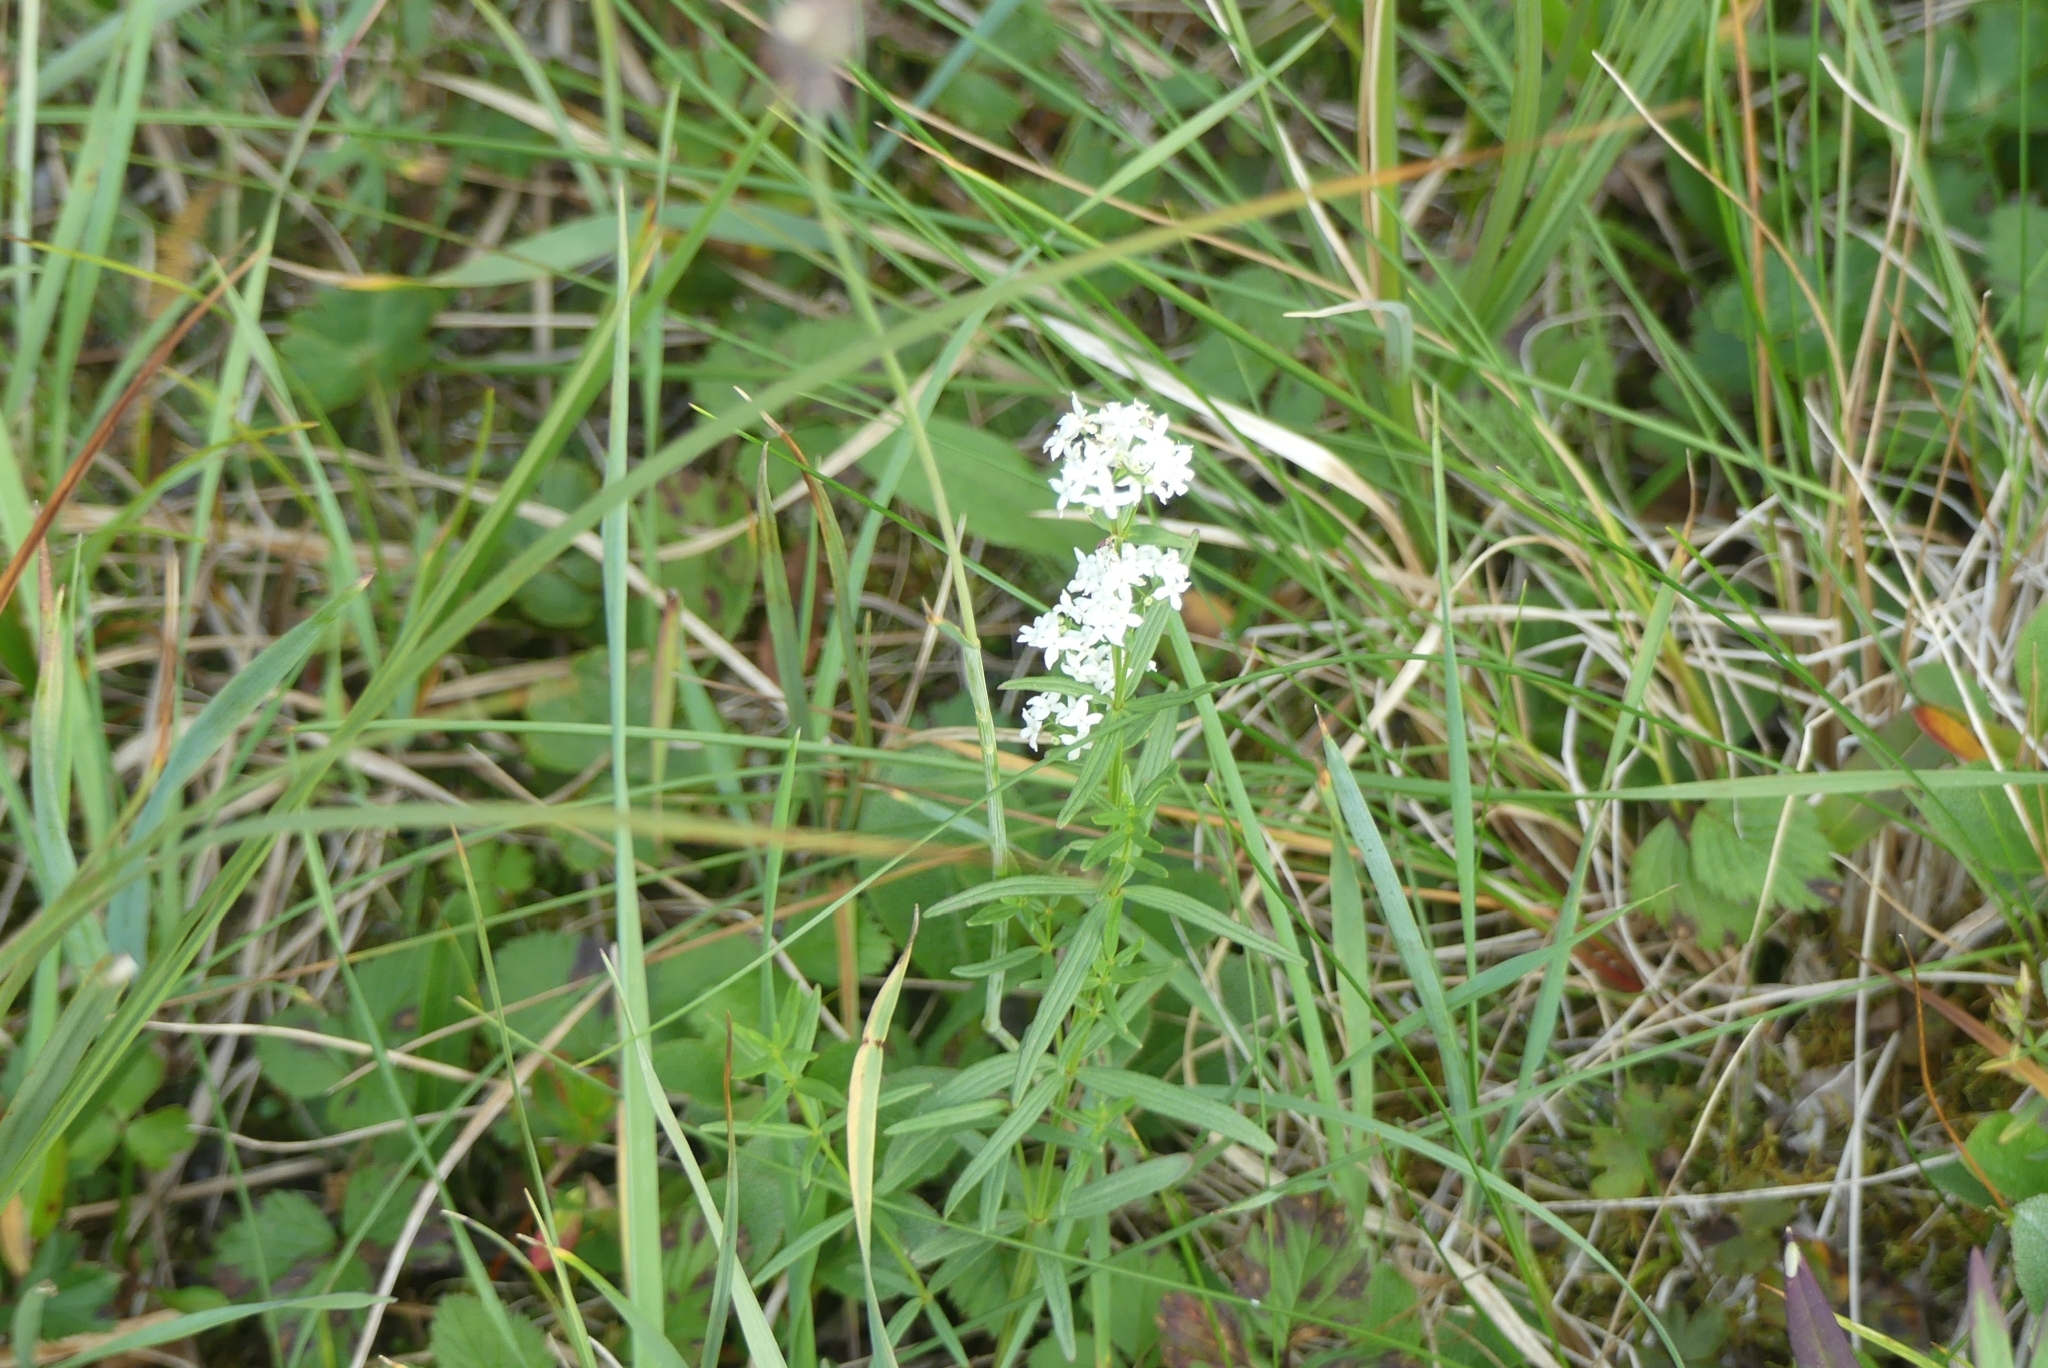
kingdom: Plantae
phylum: Tracheophyta
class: Magnoliopsida
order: Gentianales
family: Rubiaceae
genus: Galium
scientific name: Galium boreale
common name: Northern bedstraw
